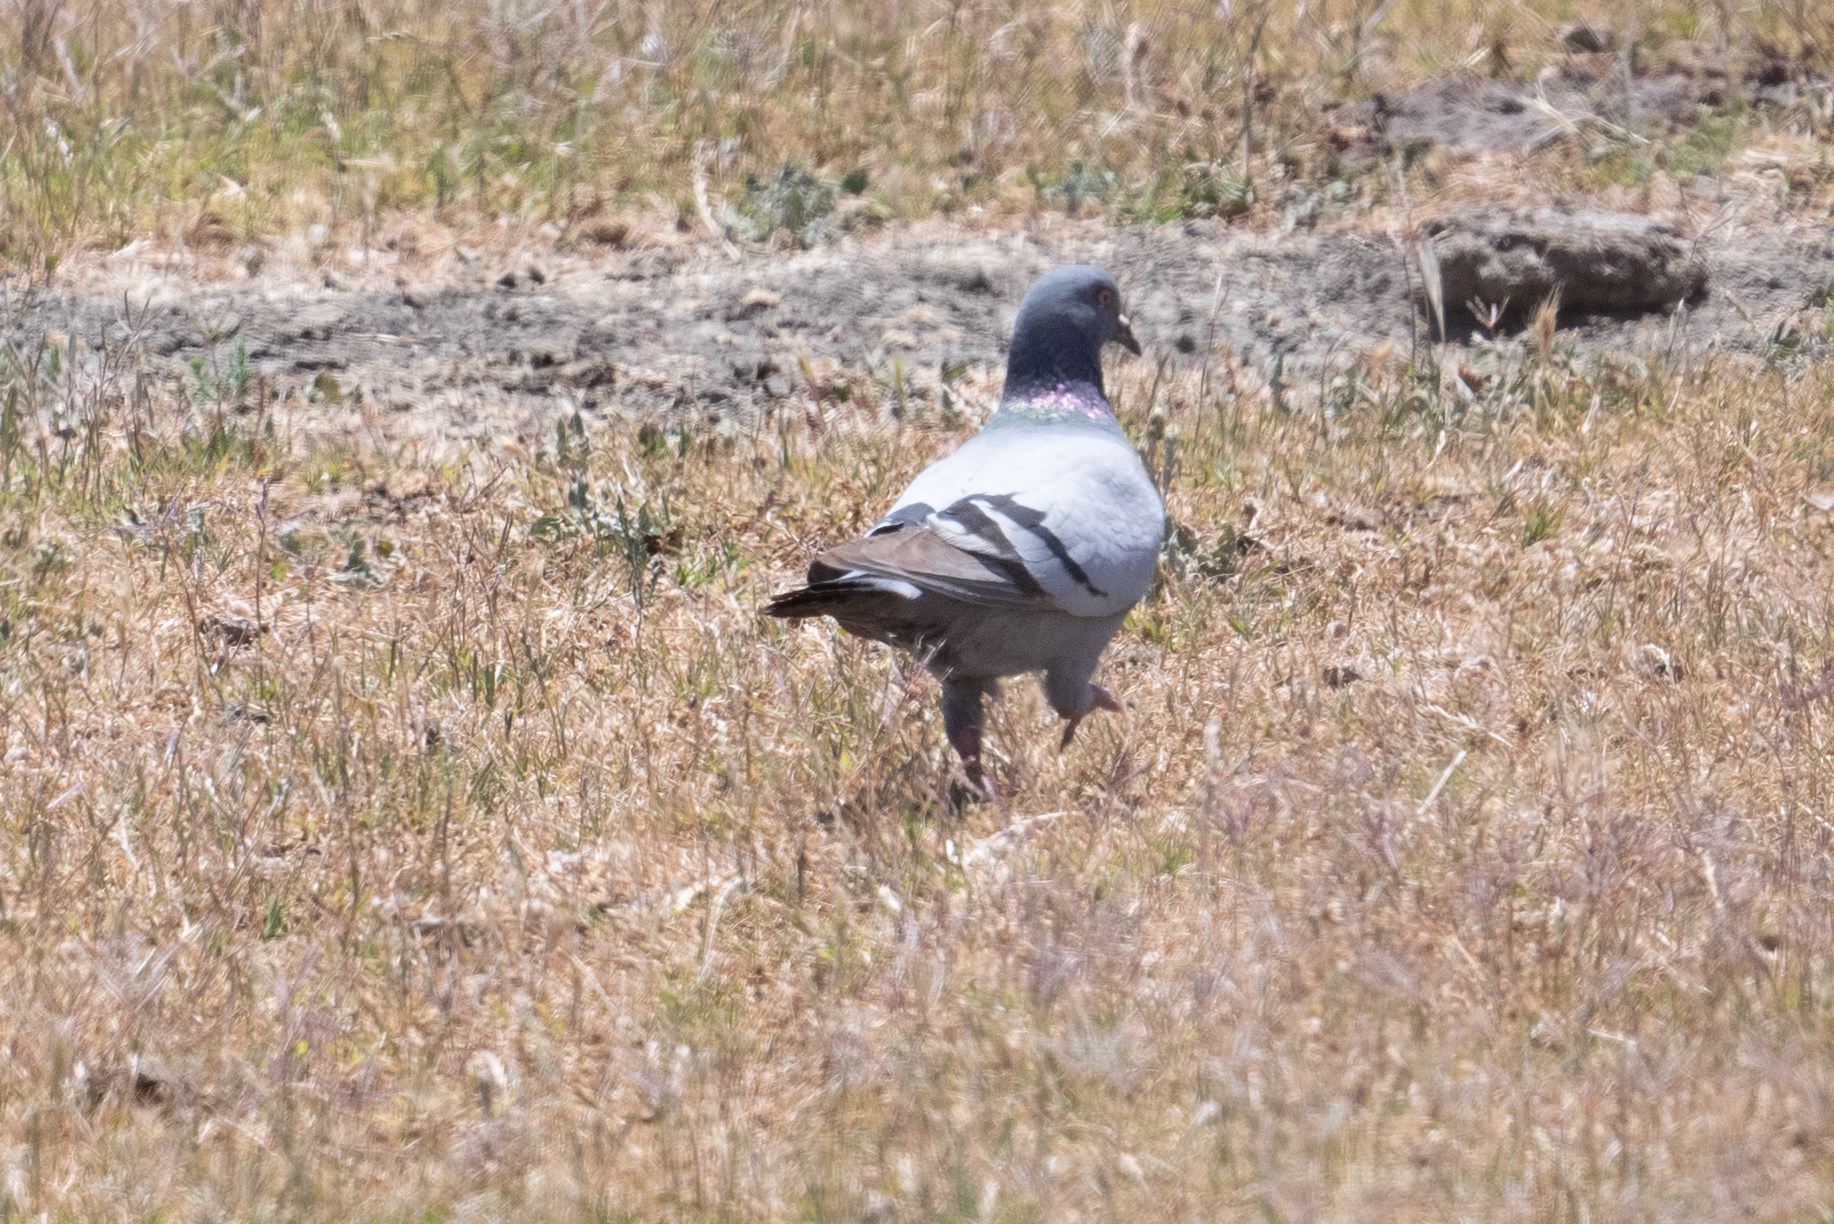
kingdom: Animalia
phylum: Chordata
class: Aves
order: Columbiformes
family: Columbidae
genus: Columba
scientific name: Columba livia
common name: Rock pigeon
